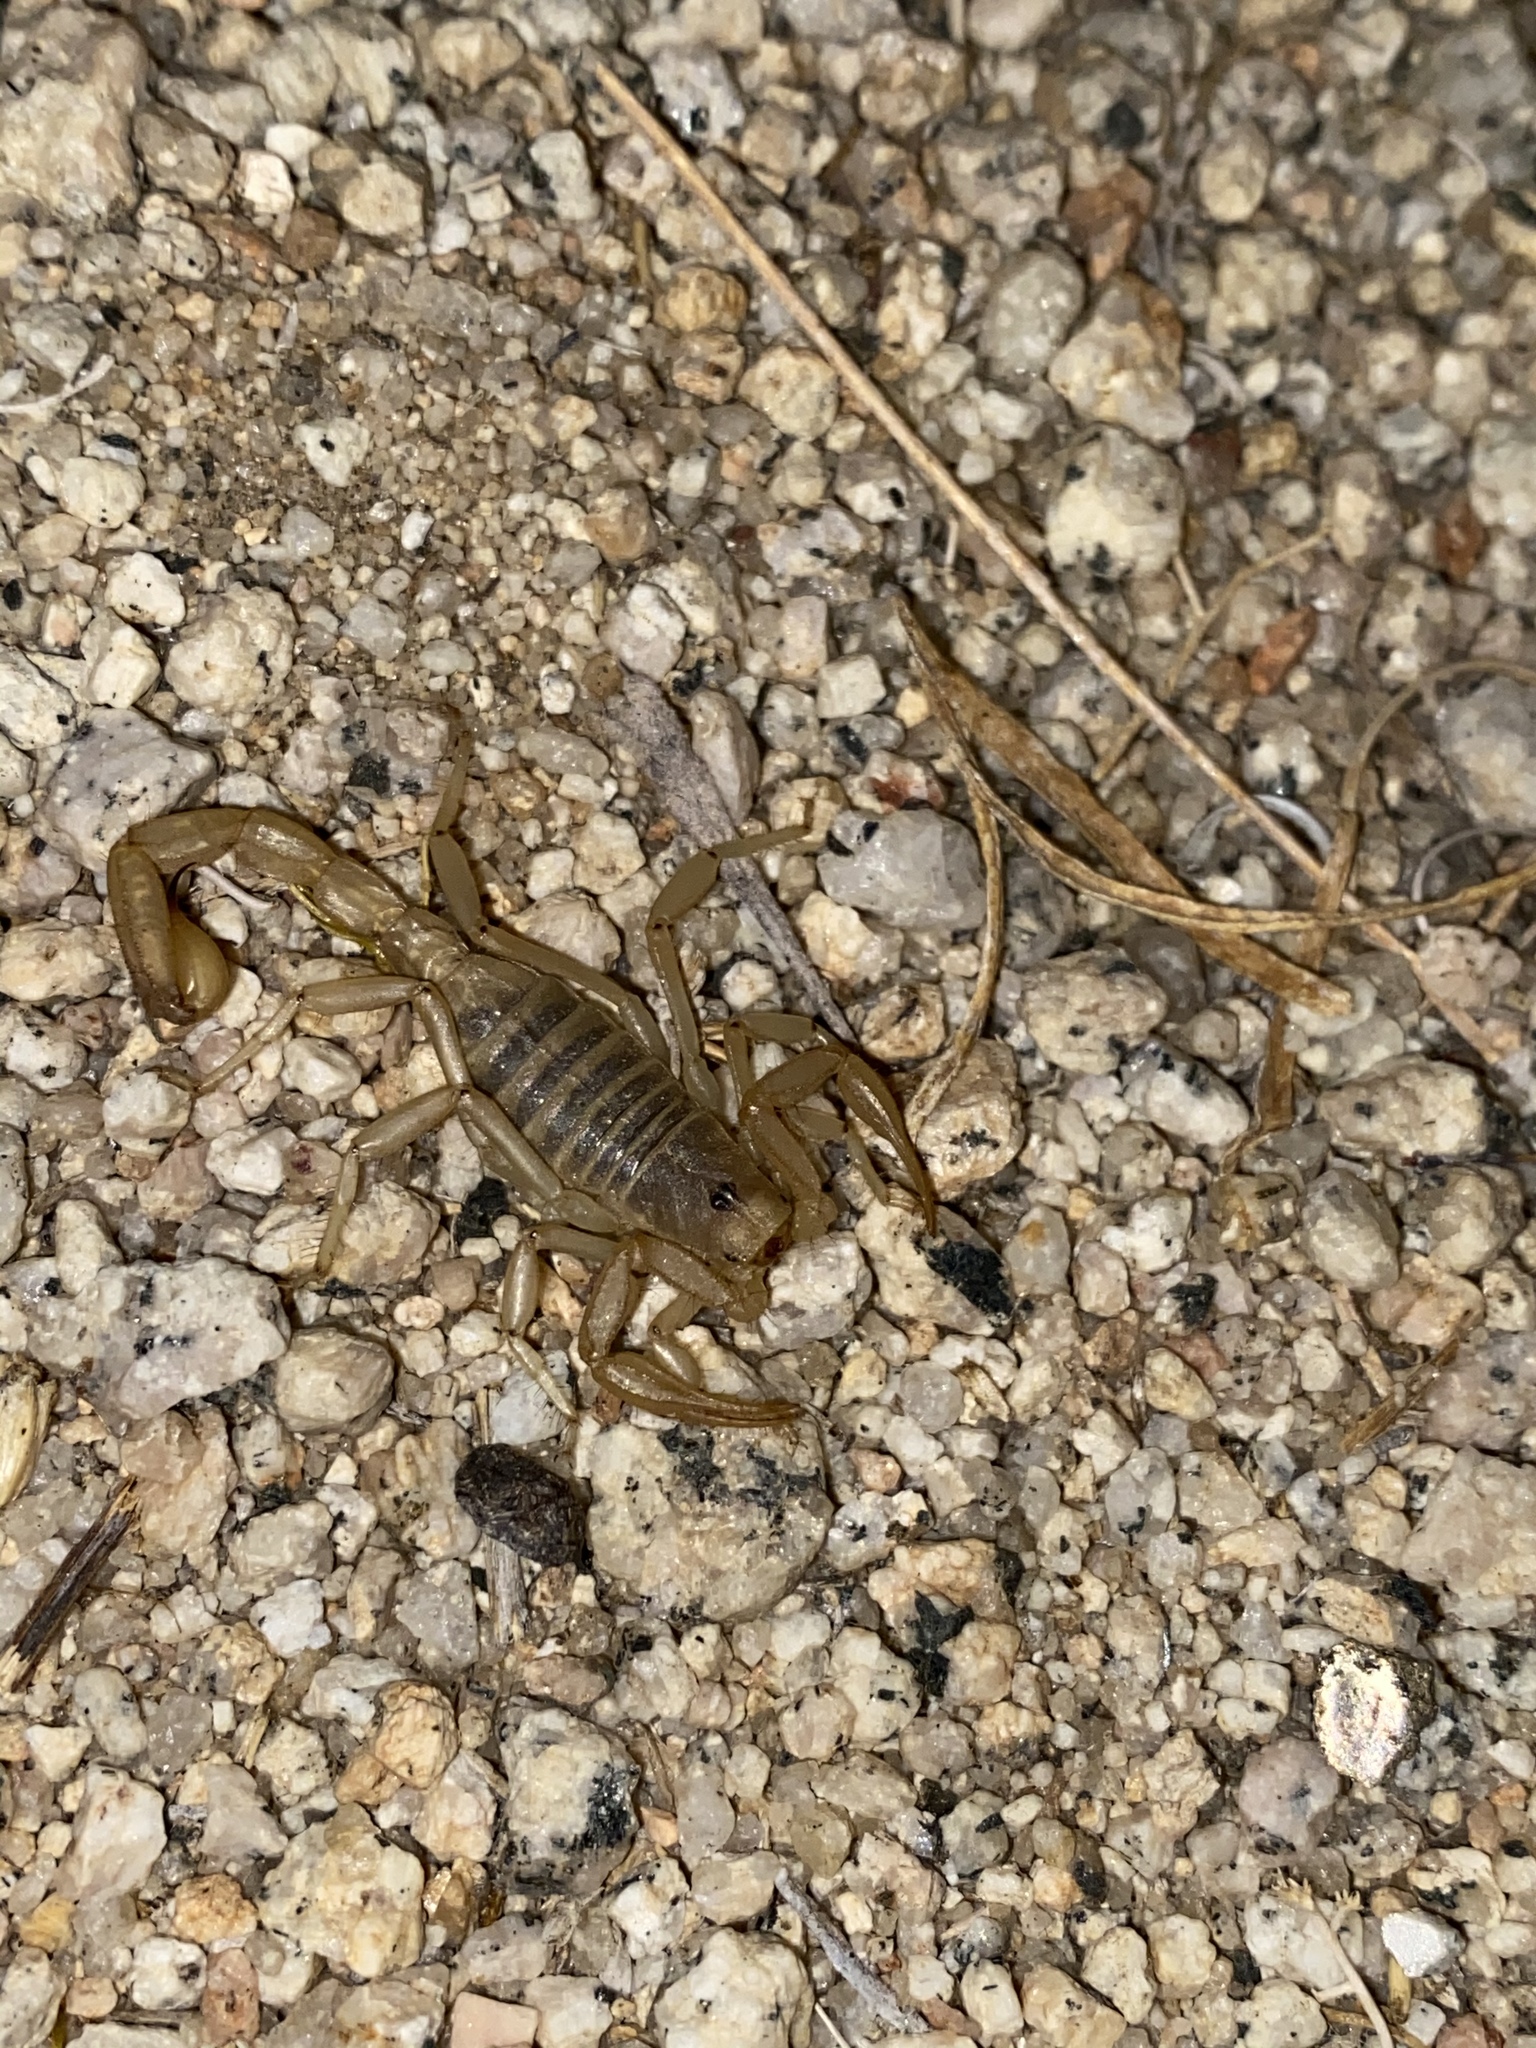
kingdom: Animalia
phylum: Arthropoda
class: Arachnida
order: Scorpiones
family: Vaejovidae
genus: Paruroctonus
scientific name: Paruroctonus becki
